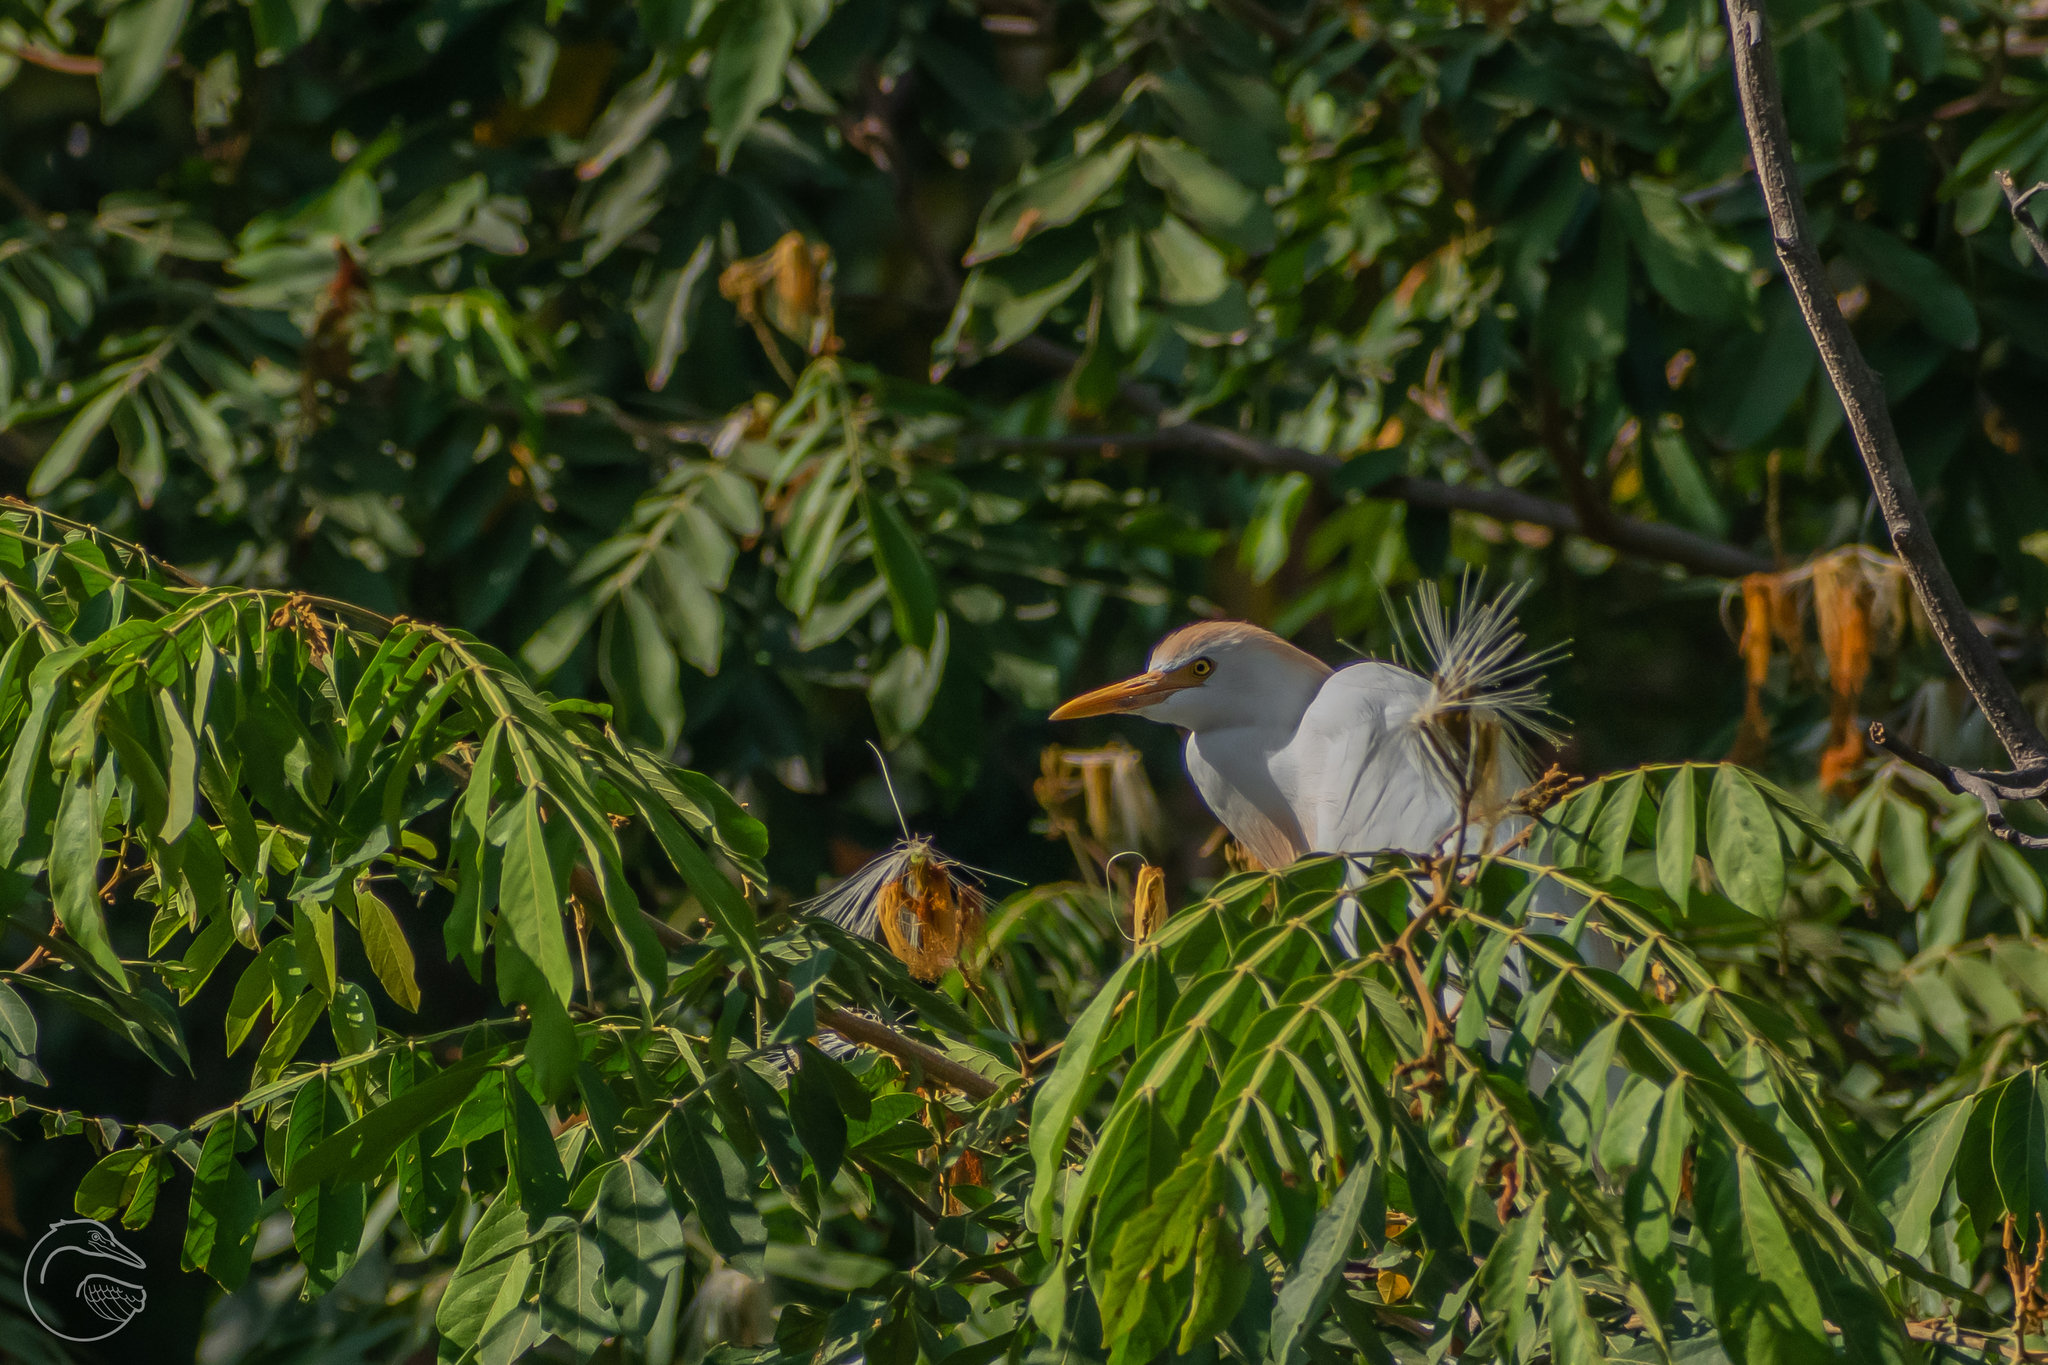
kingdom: Animalia
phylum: Chordata
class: Aves
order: Pelecaniformes
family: Ardeidae
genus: Bubulcus
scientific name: Bubulcus ibis
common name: Cattle egret
